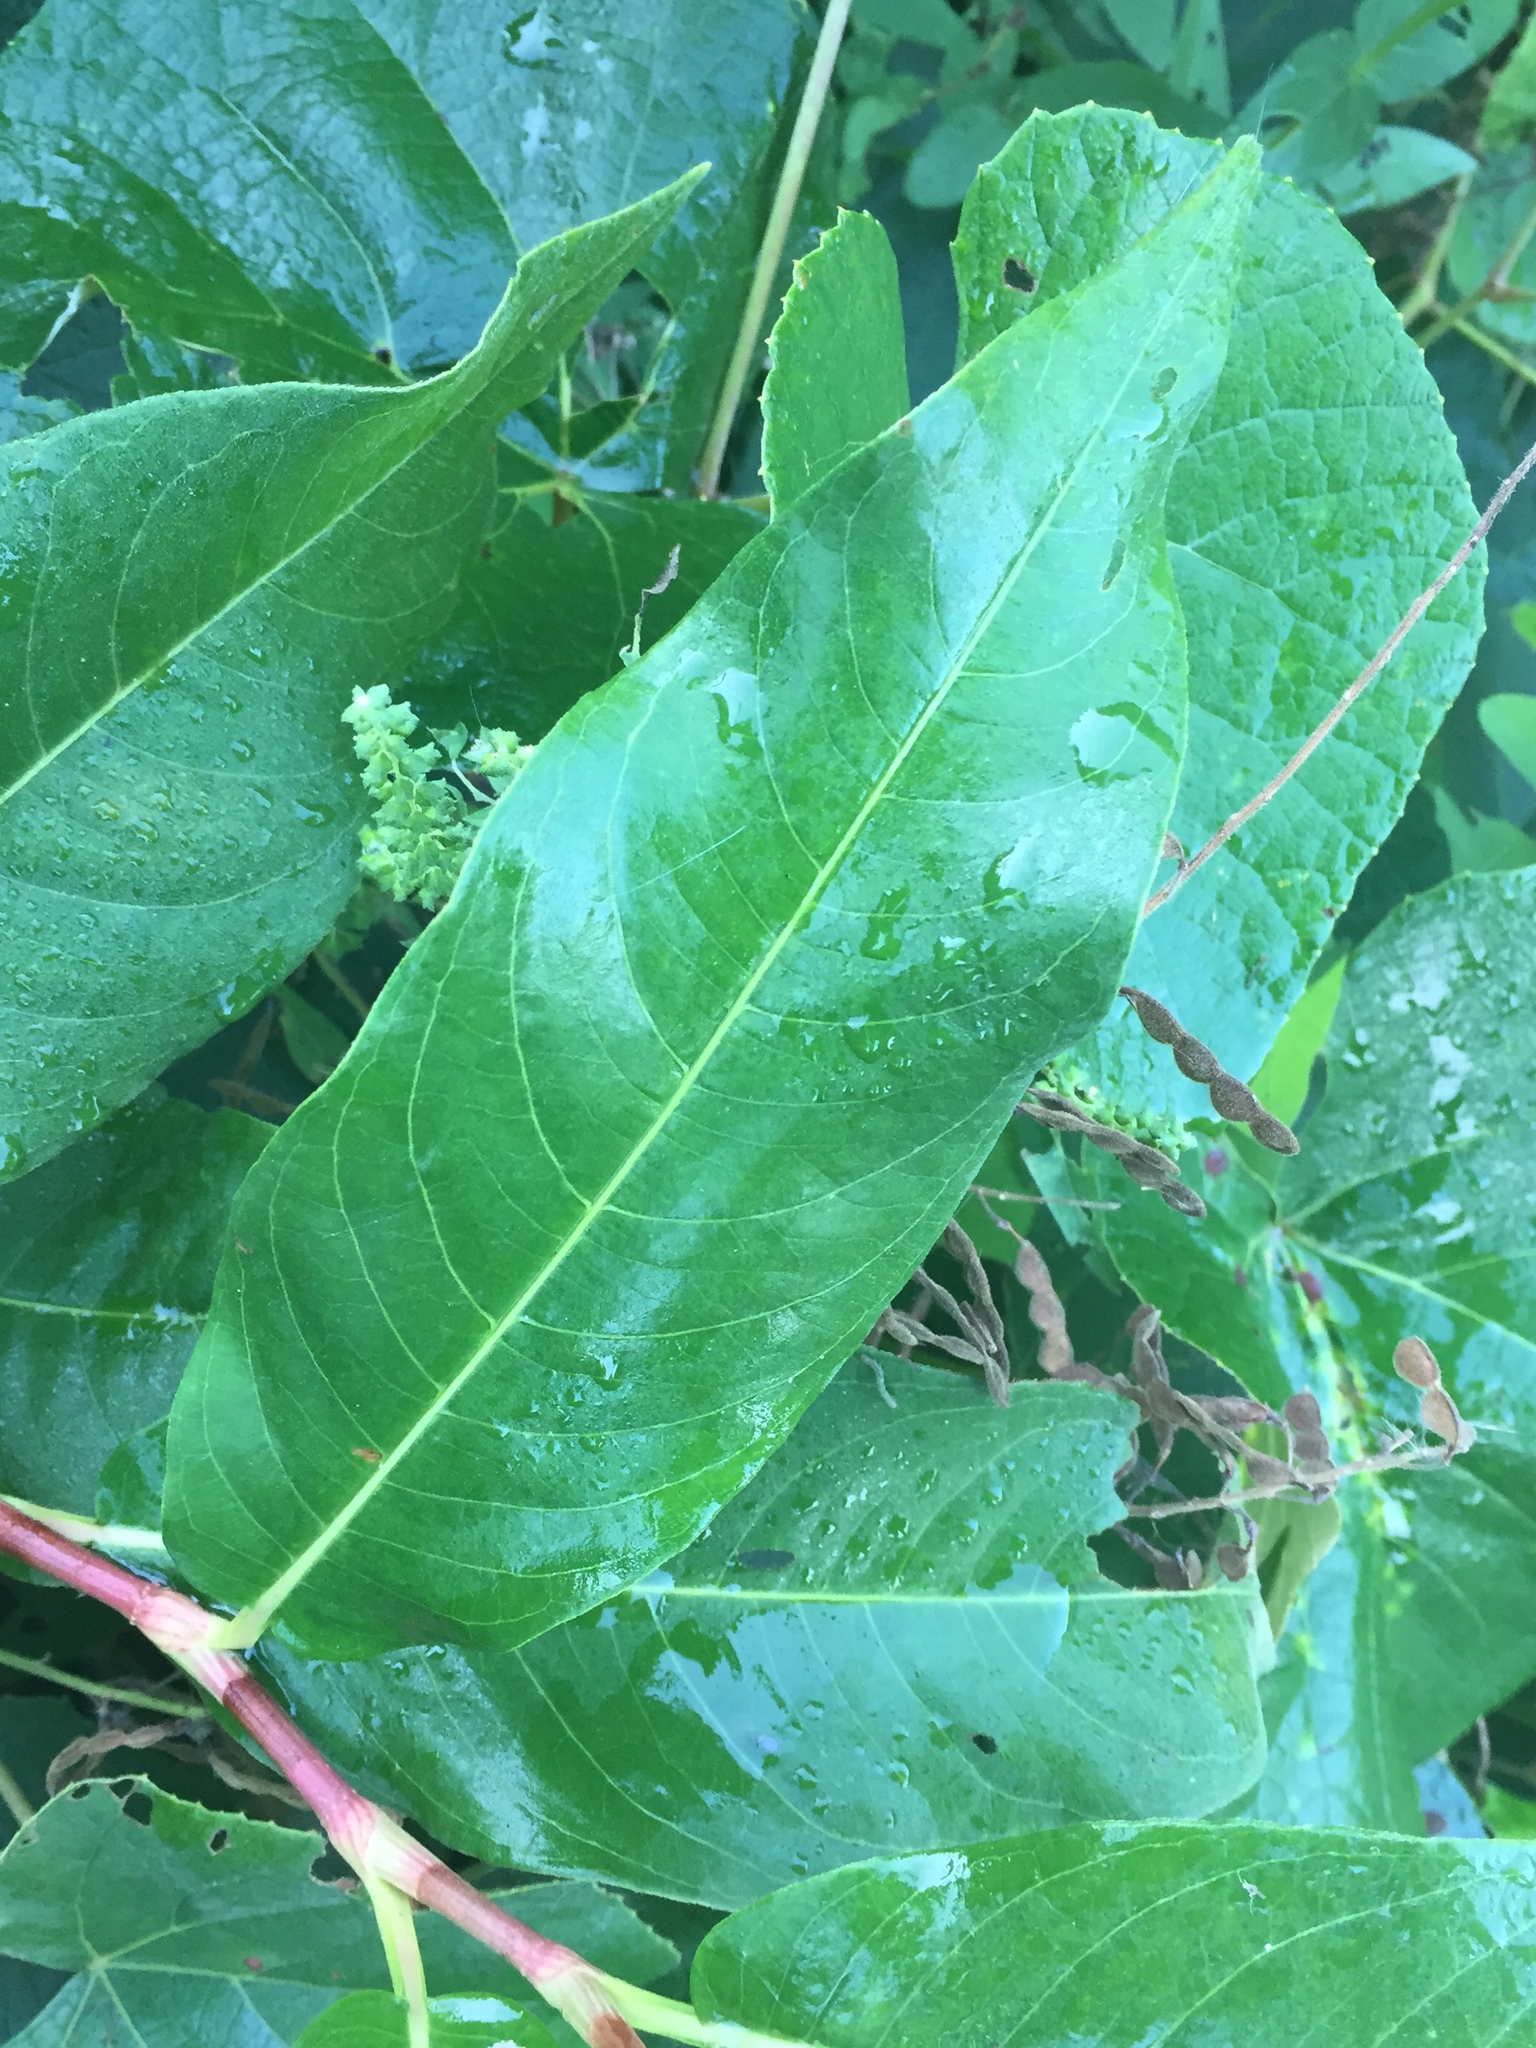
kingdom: Plantae
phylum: Tracheophyta
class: Magnoliopsida
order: Caryophyllales
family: Polygonaceae
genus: Persicaria
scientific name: Persicaria amphibia
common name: Amphibious bistort
